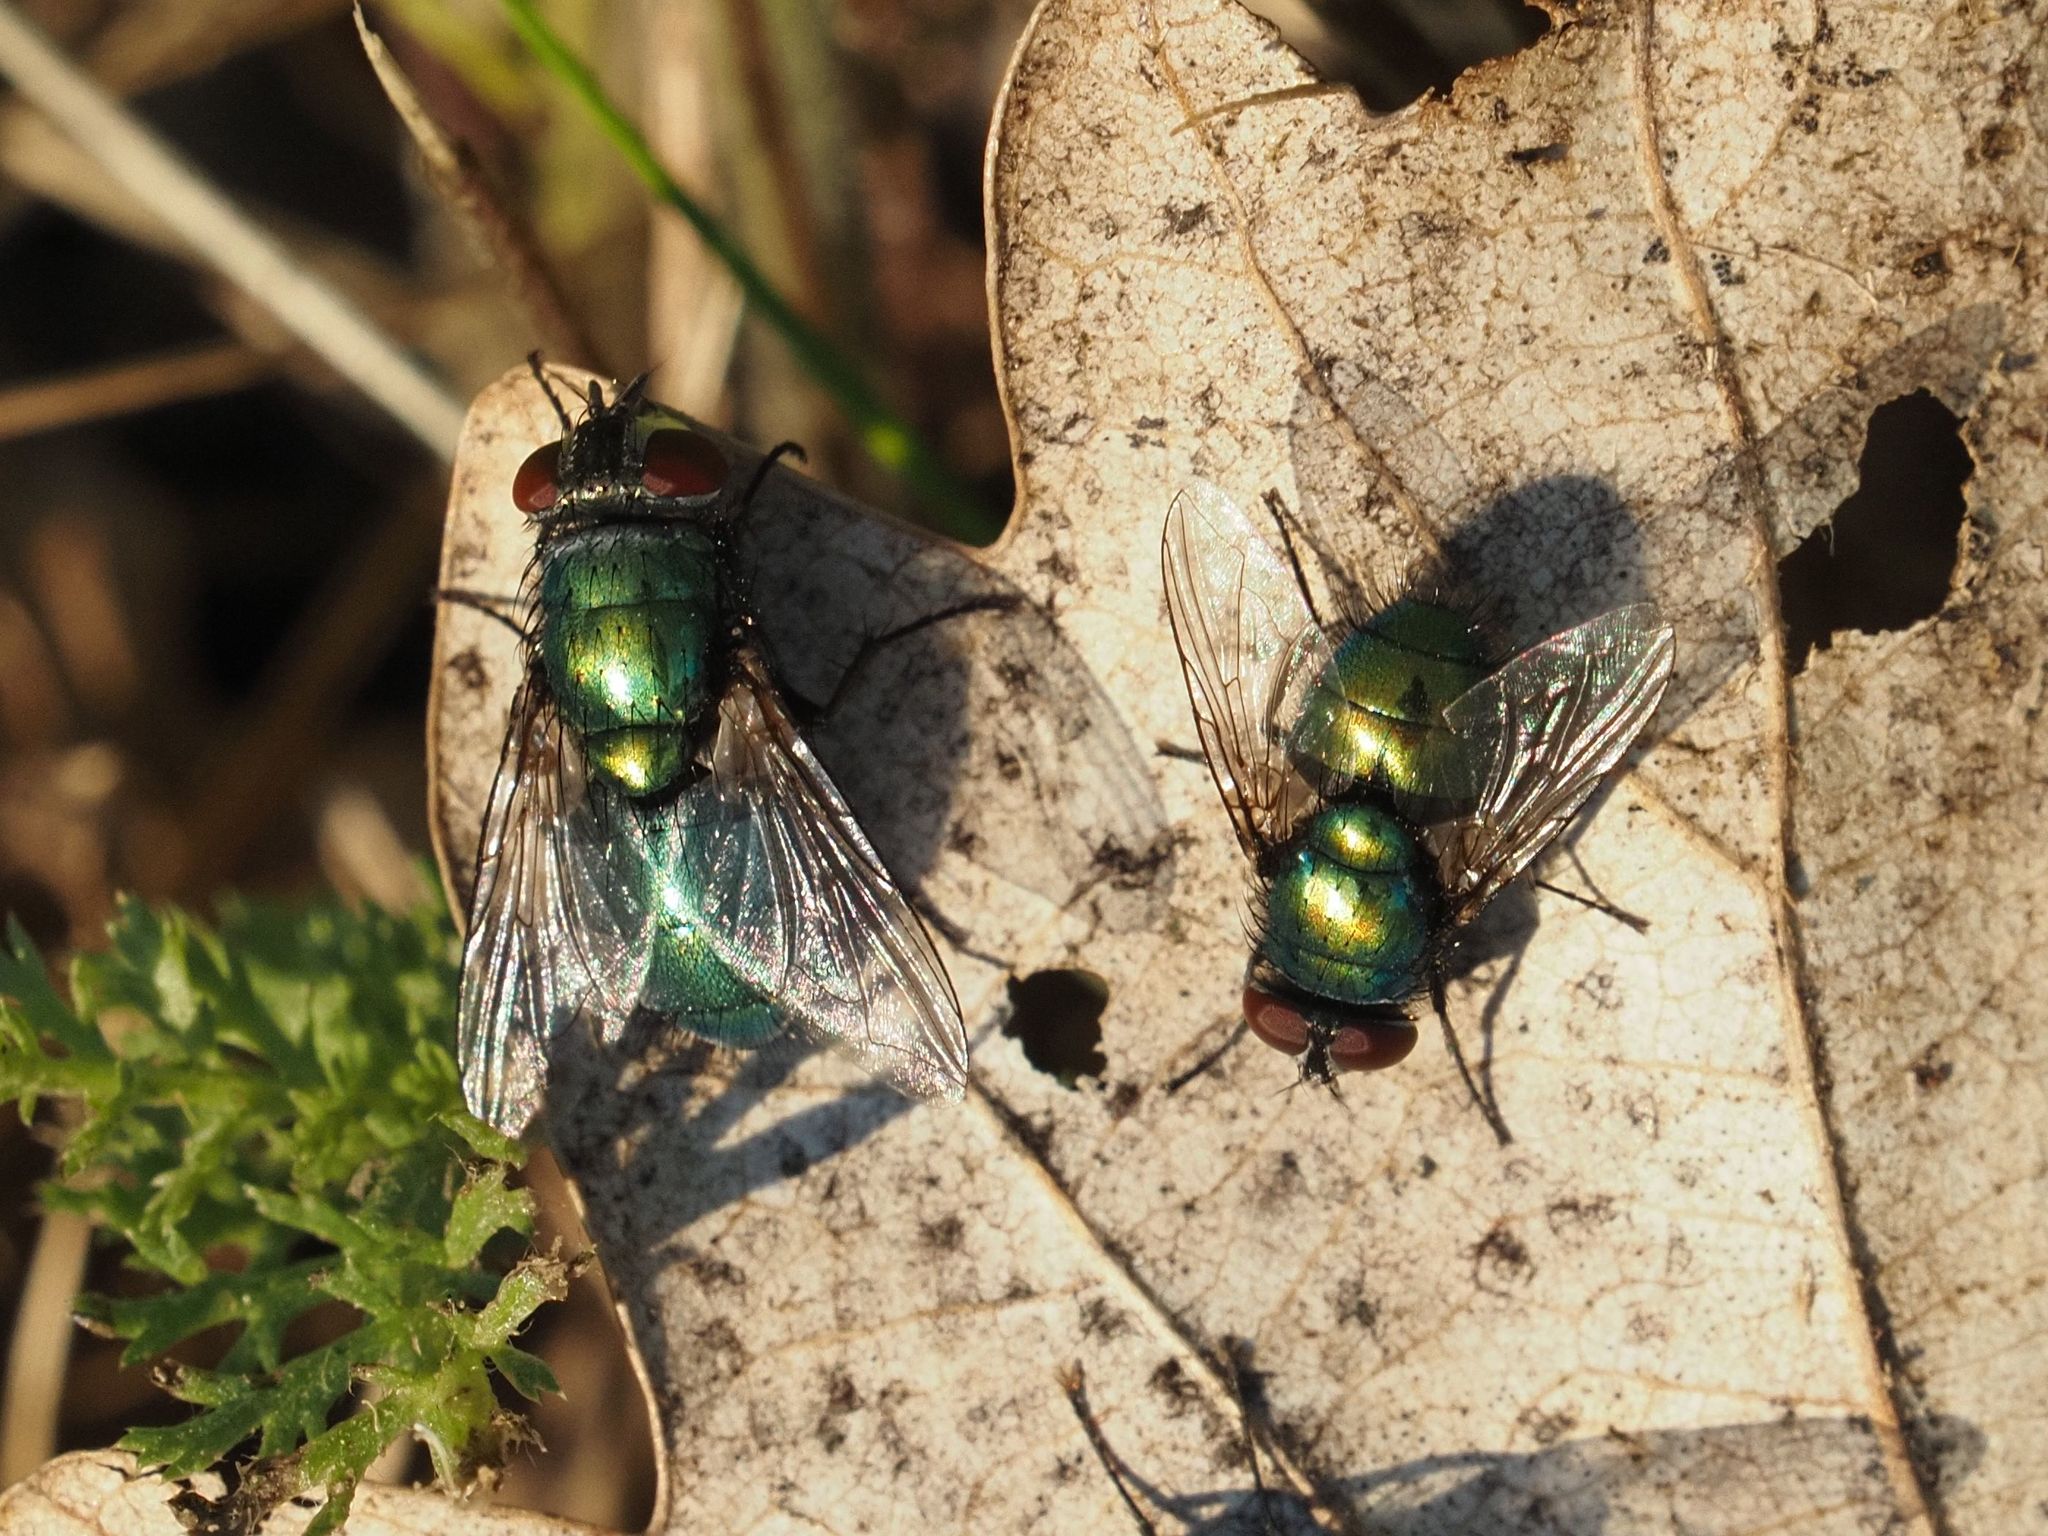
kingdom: Animalia
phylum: Arthropoda
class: Insecta
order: Diptera
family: Calliphoridae
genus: Lucilia
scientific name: Lucilia
